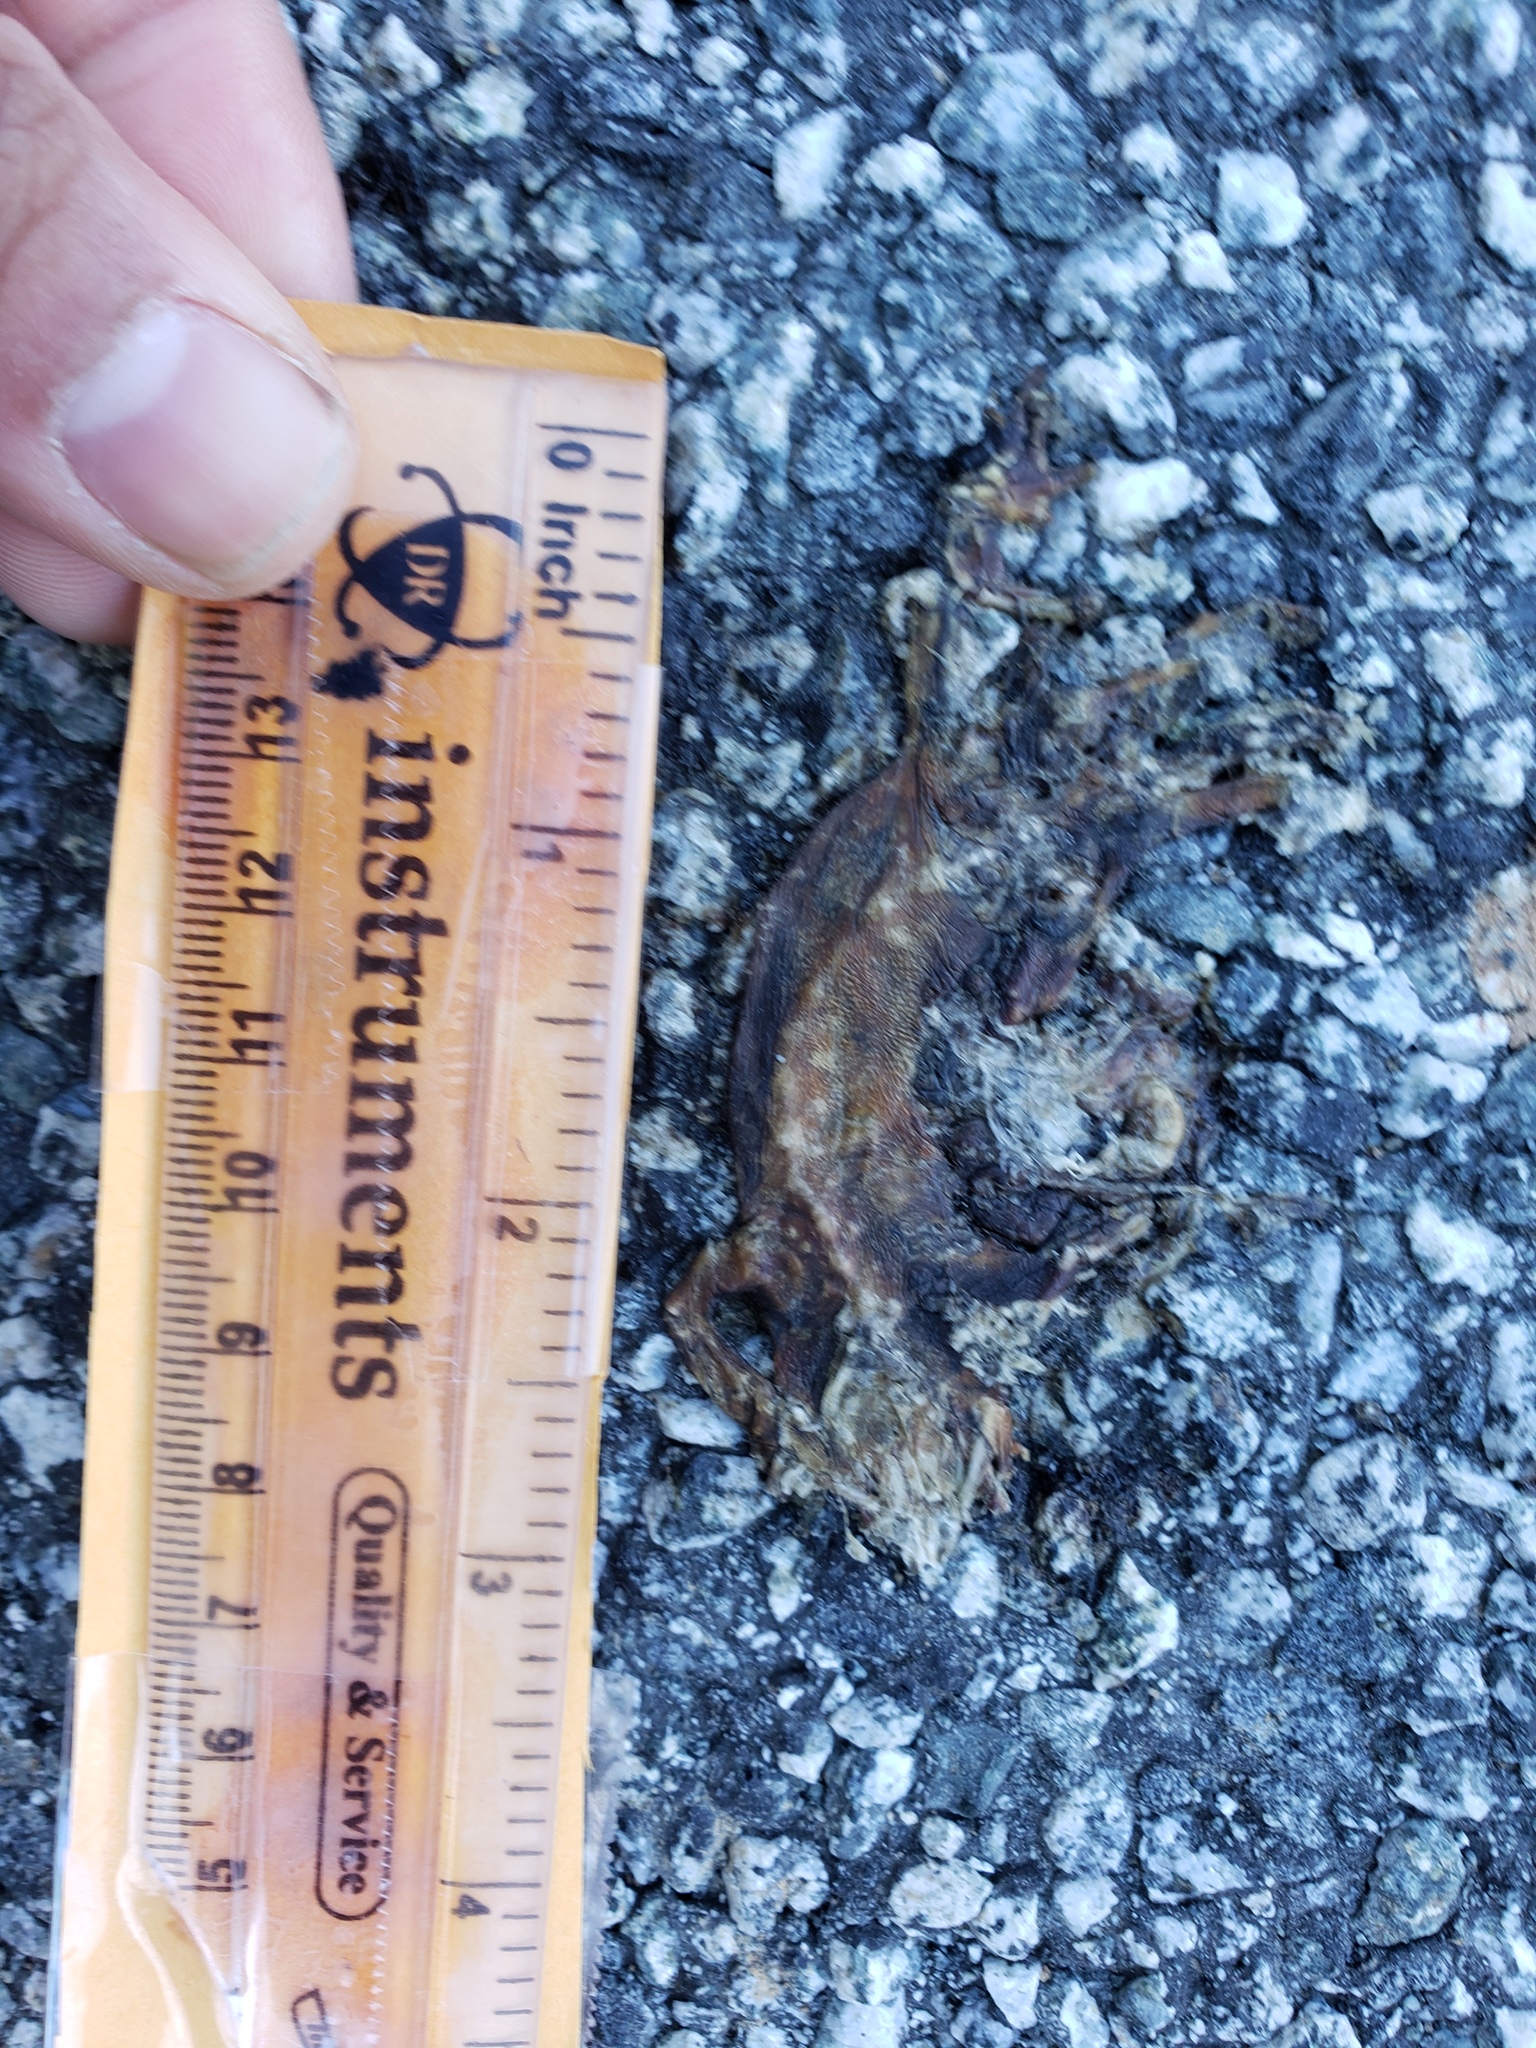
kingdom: Animalia
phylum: Chordata
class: Amphibia
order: Caudata
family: Salamandridae
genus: Taricha
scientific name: Taricha
